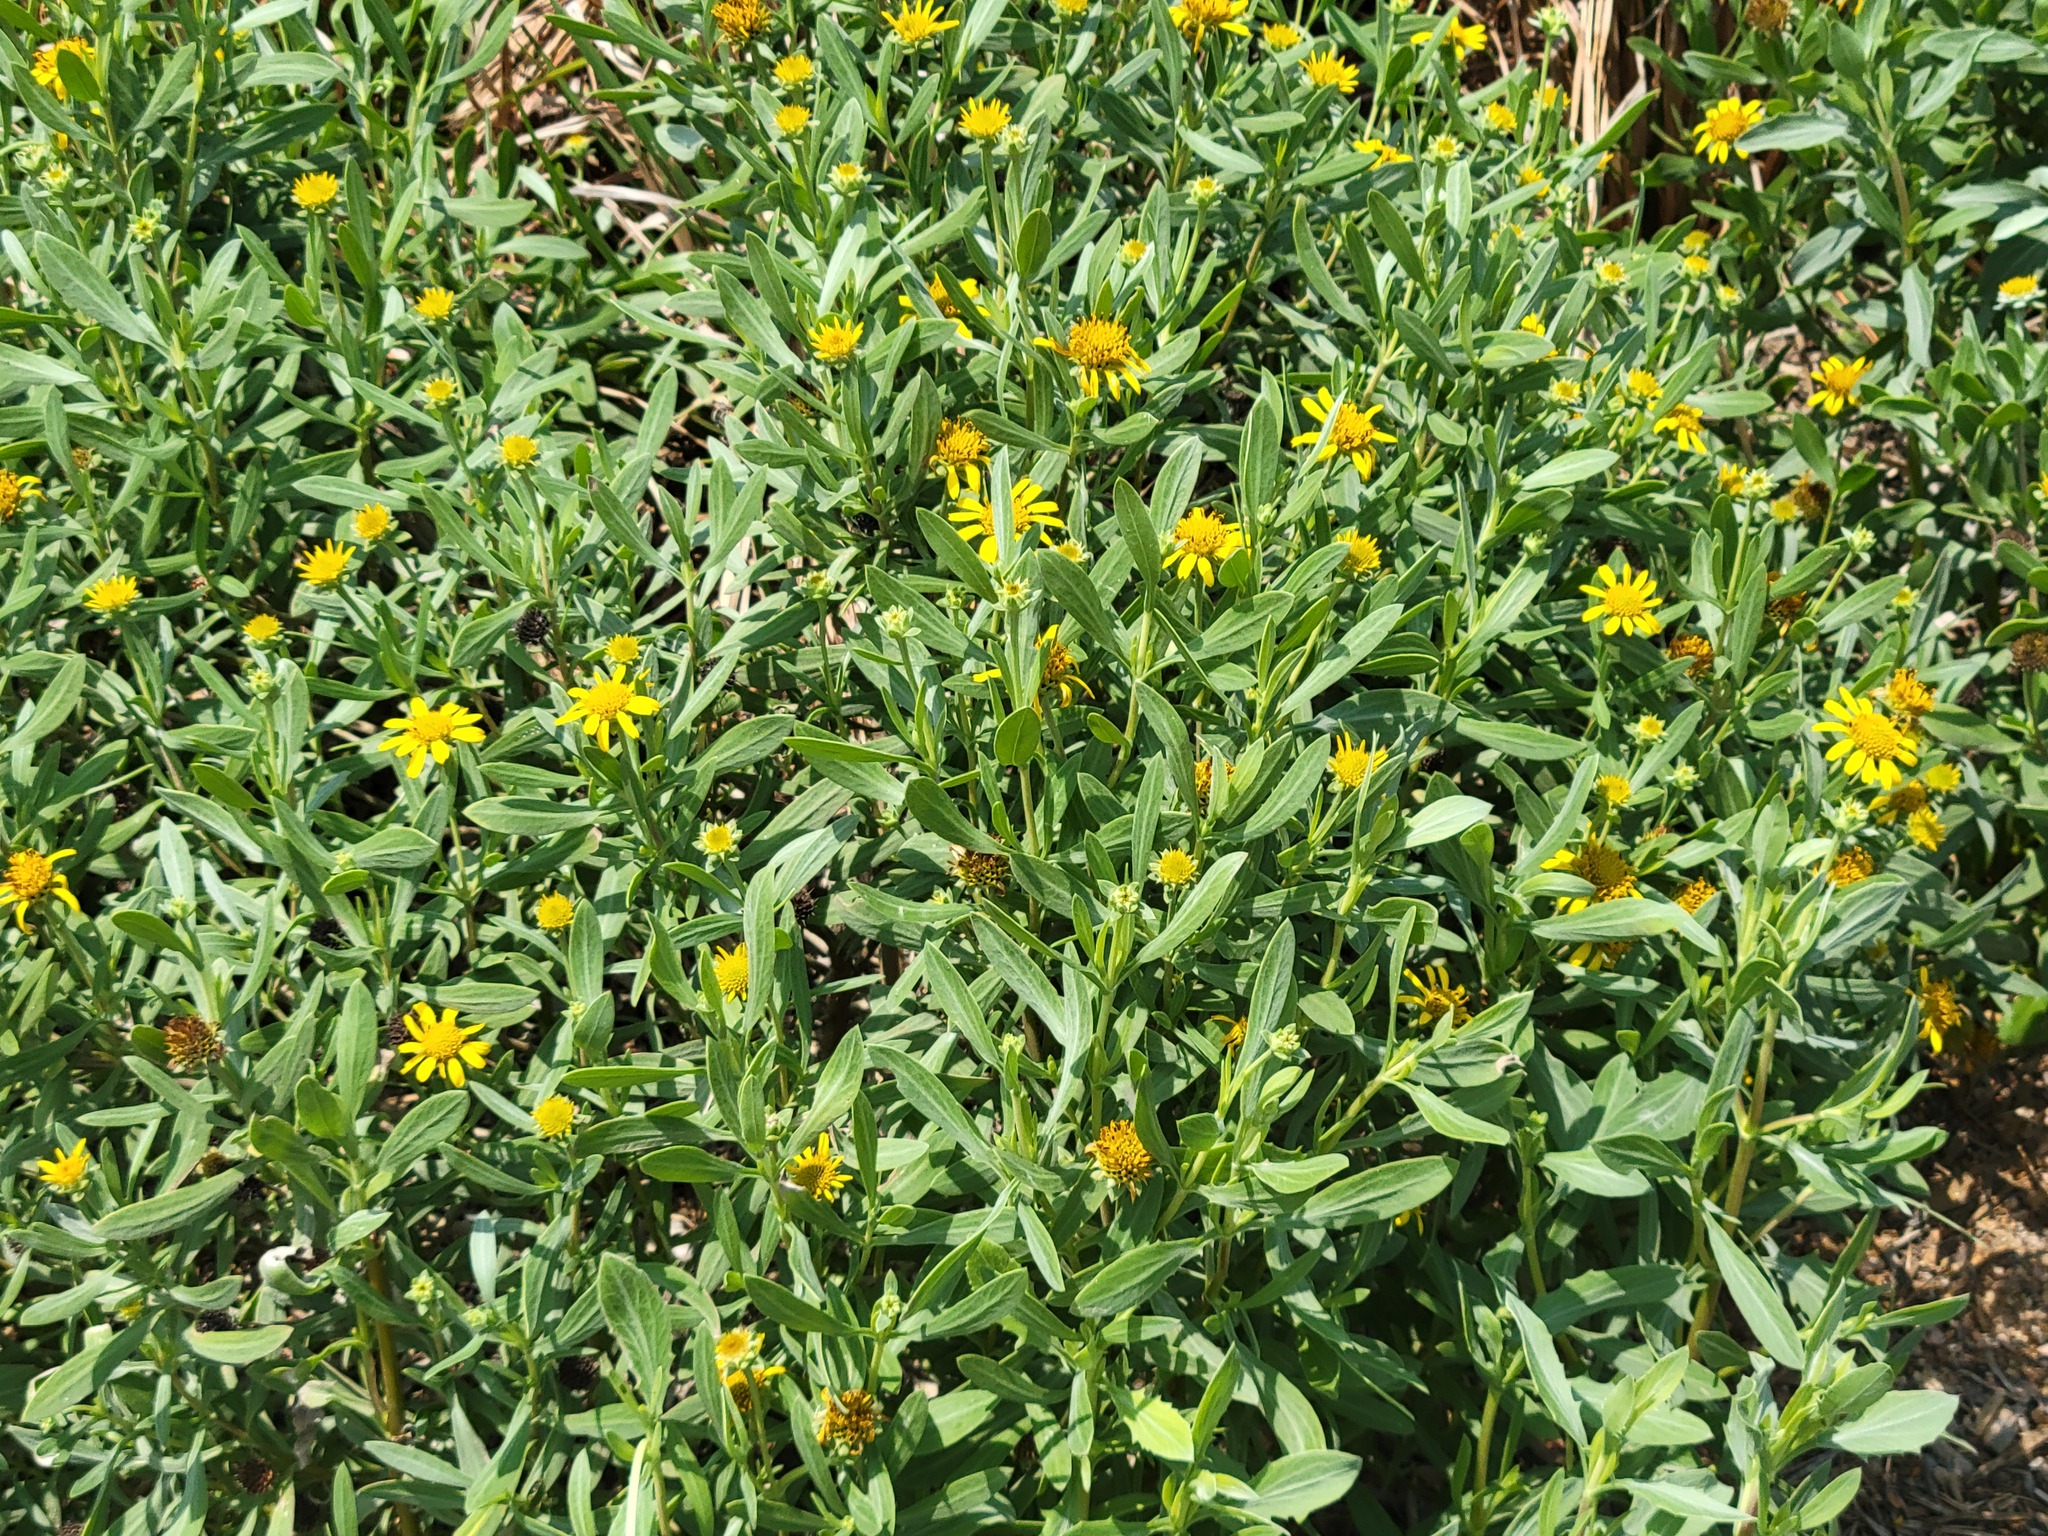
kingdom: Plantae
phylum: Tracheophyta
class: Magnoliopsida
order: Asterales
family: Asteraceae
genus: Borrichia
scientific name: Borrichia frutescens
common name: Sea oxeye
